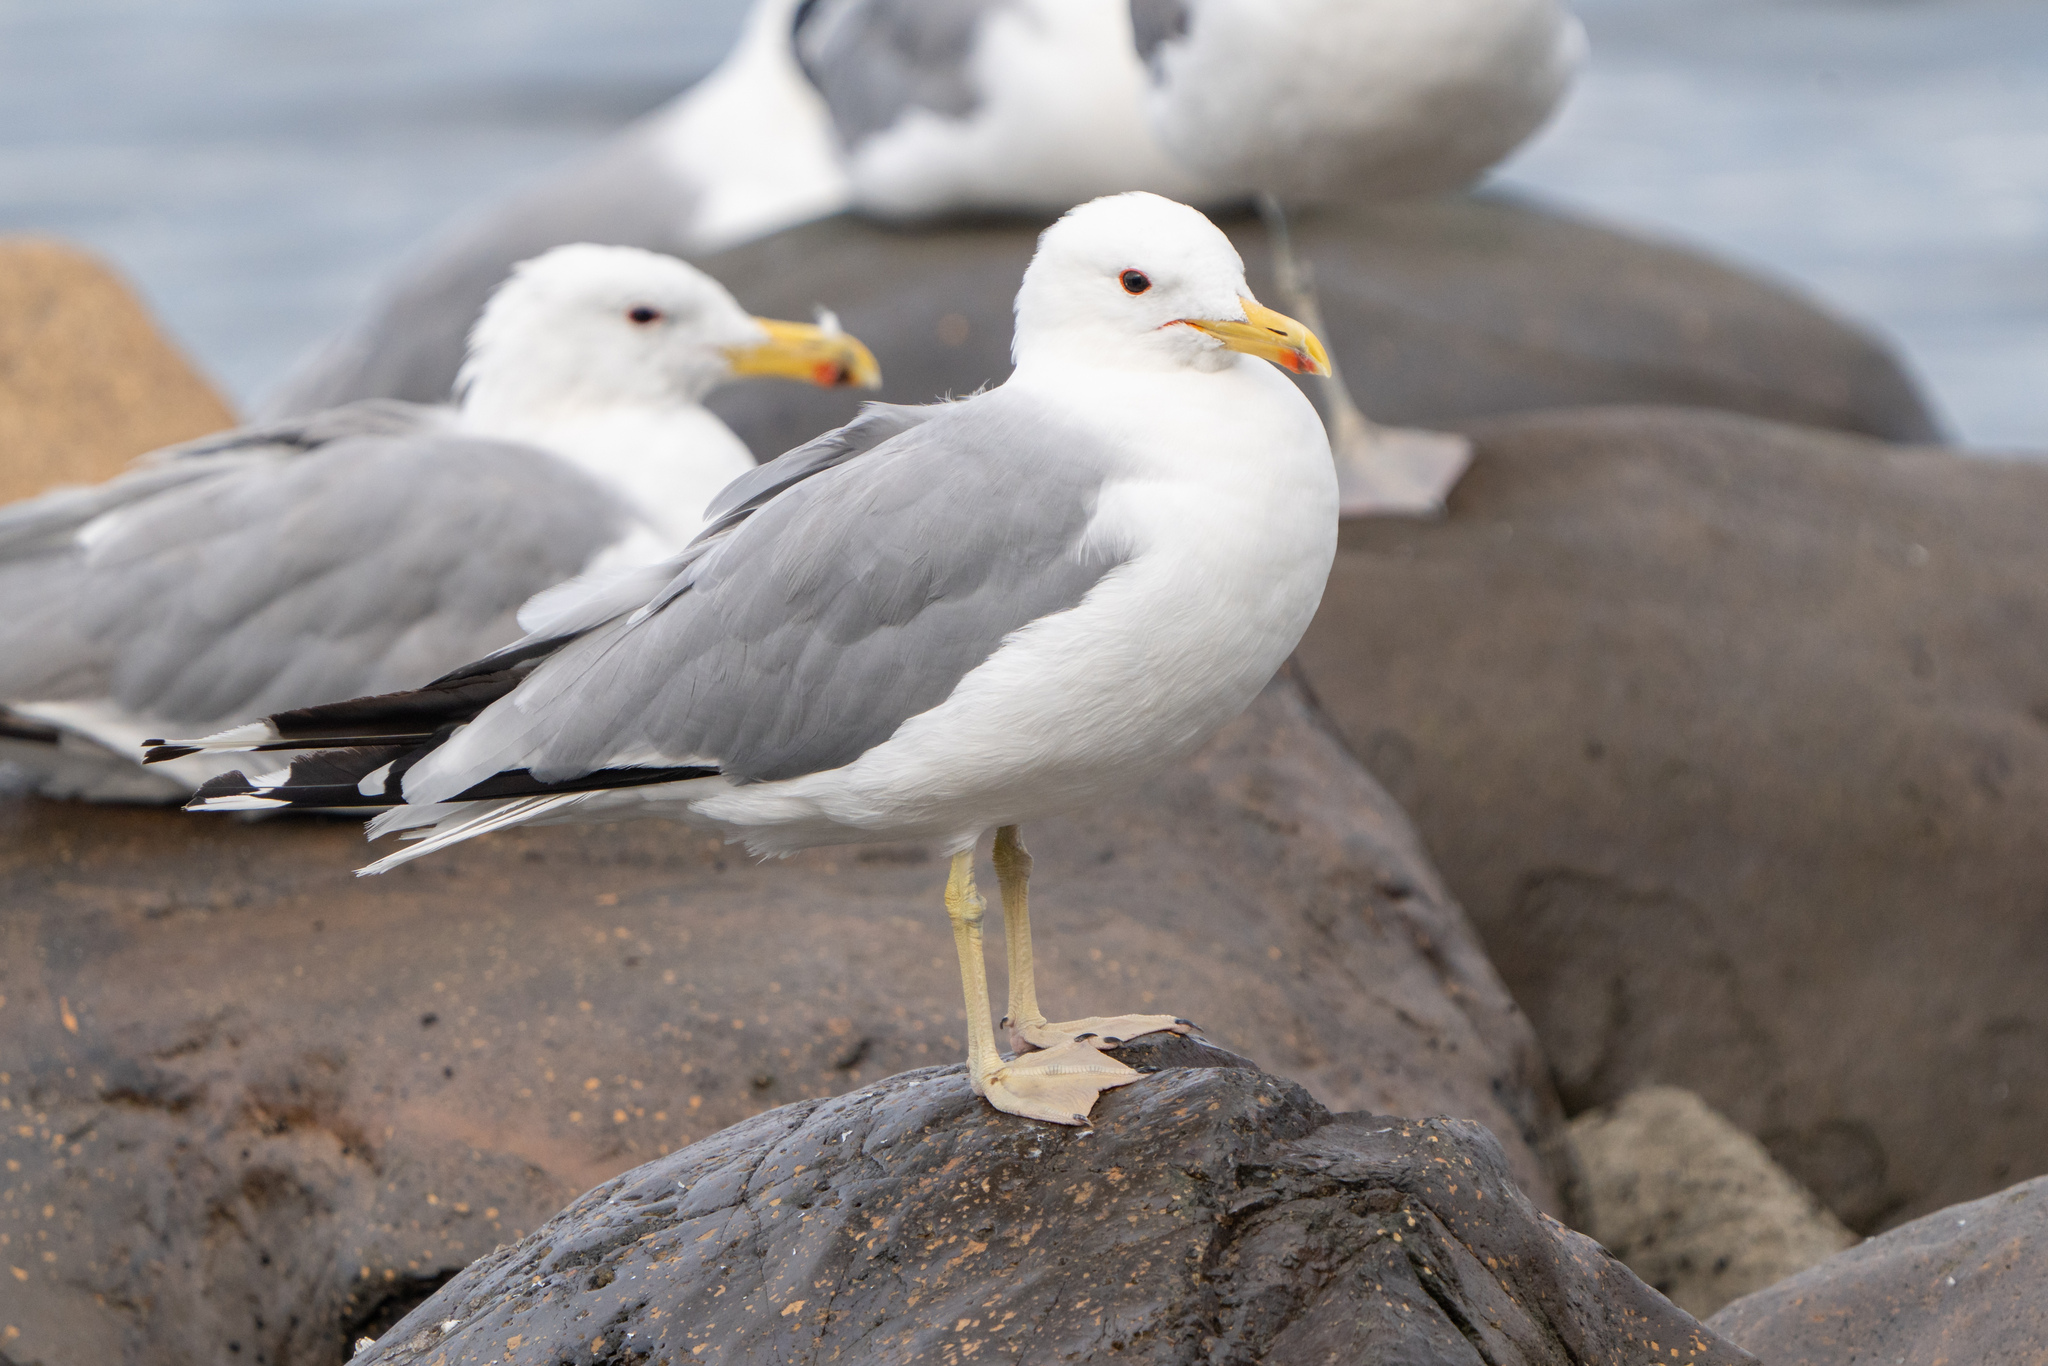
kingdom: Animalia
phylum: Chordata
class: Aves
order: Charadriiformes
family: Laridae
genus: Larus
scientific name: Larus californicus
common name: California gull
